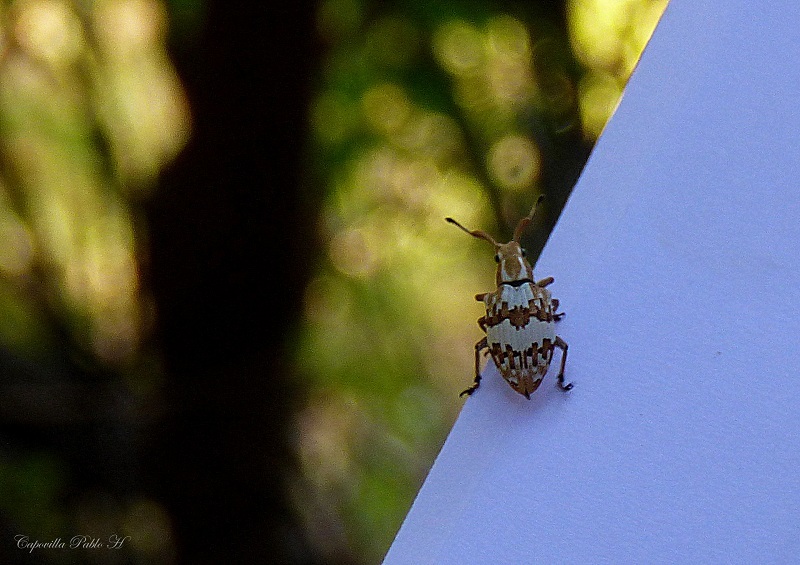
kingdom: Animalia
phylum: Arthropoda
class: Insecta
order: Coleoptera
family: Curculionidae
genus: Platyomus
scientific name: Platyomus elegantulus
